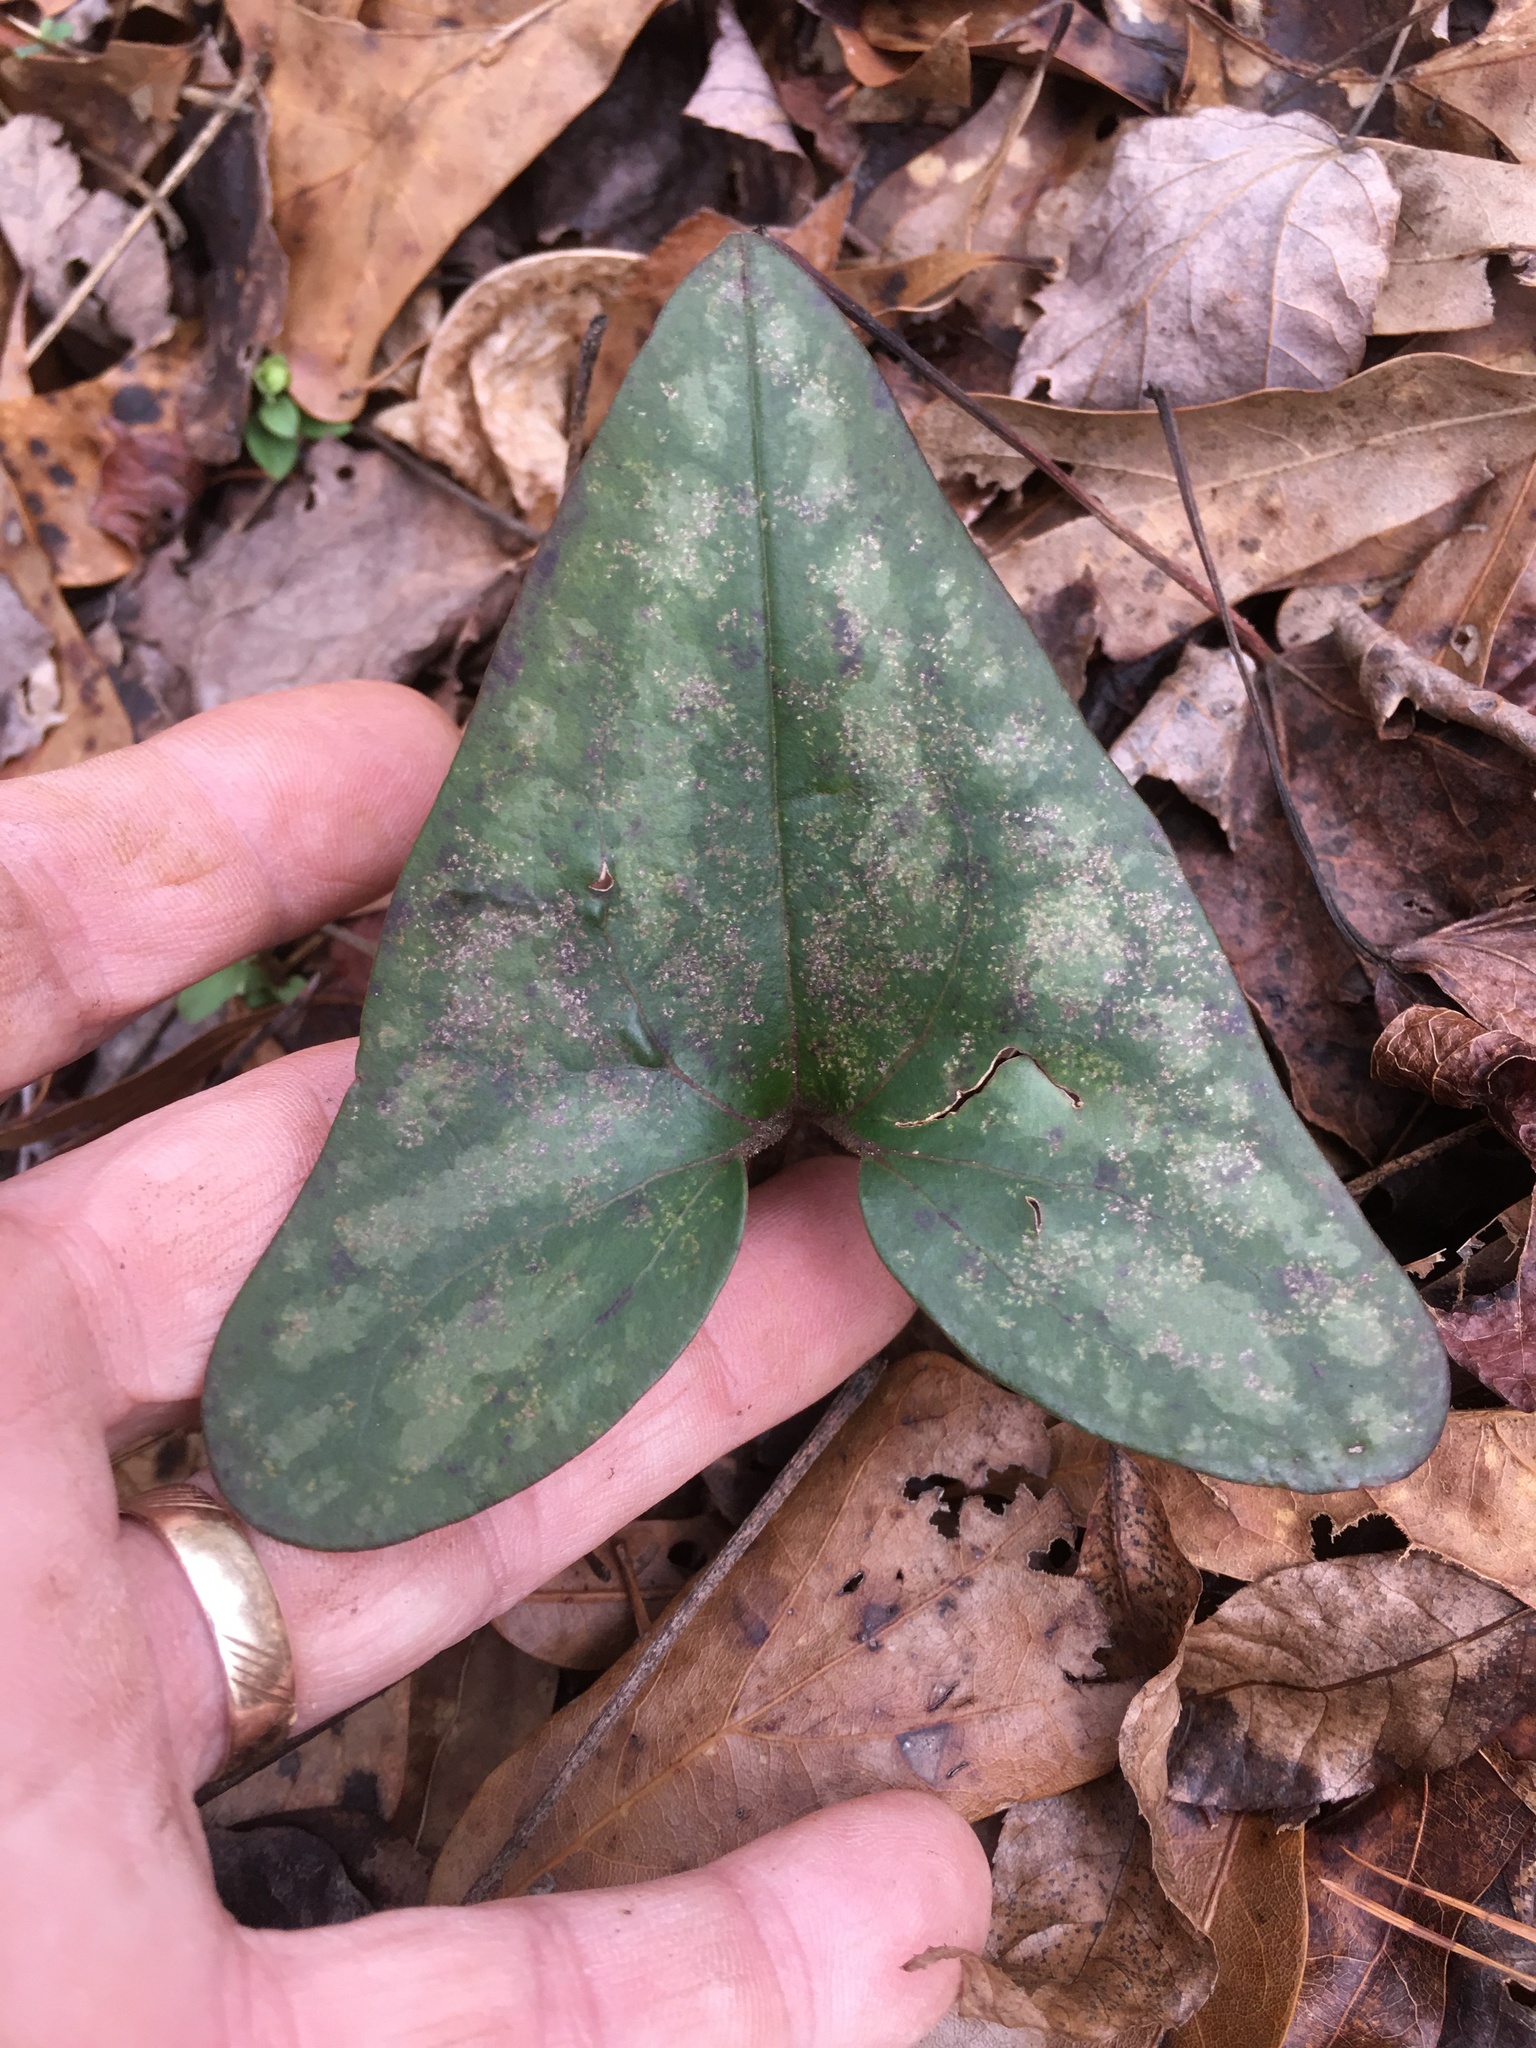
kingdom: Plantae
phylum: Tracheophyta
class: Magnoliopsida
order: Piperales
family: Aristolochiaceae
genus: Hexastylis
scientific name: Hexastylis arifolia
